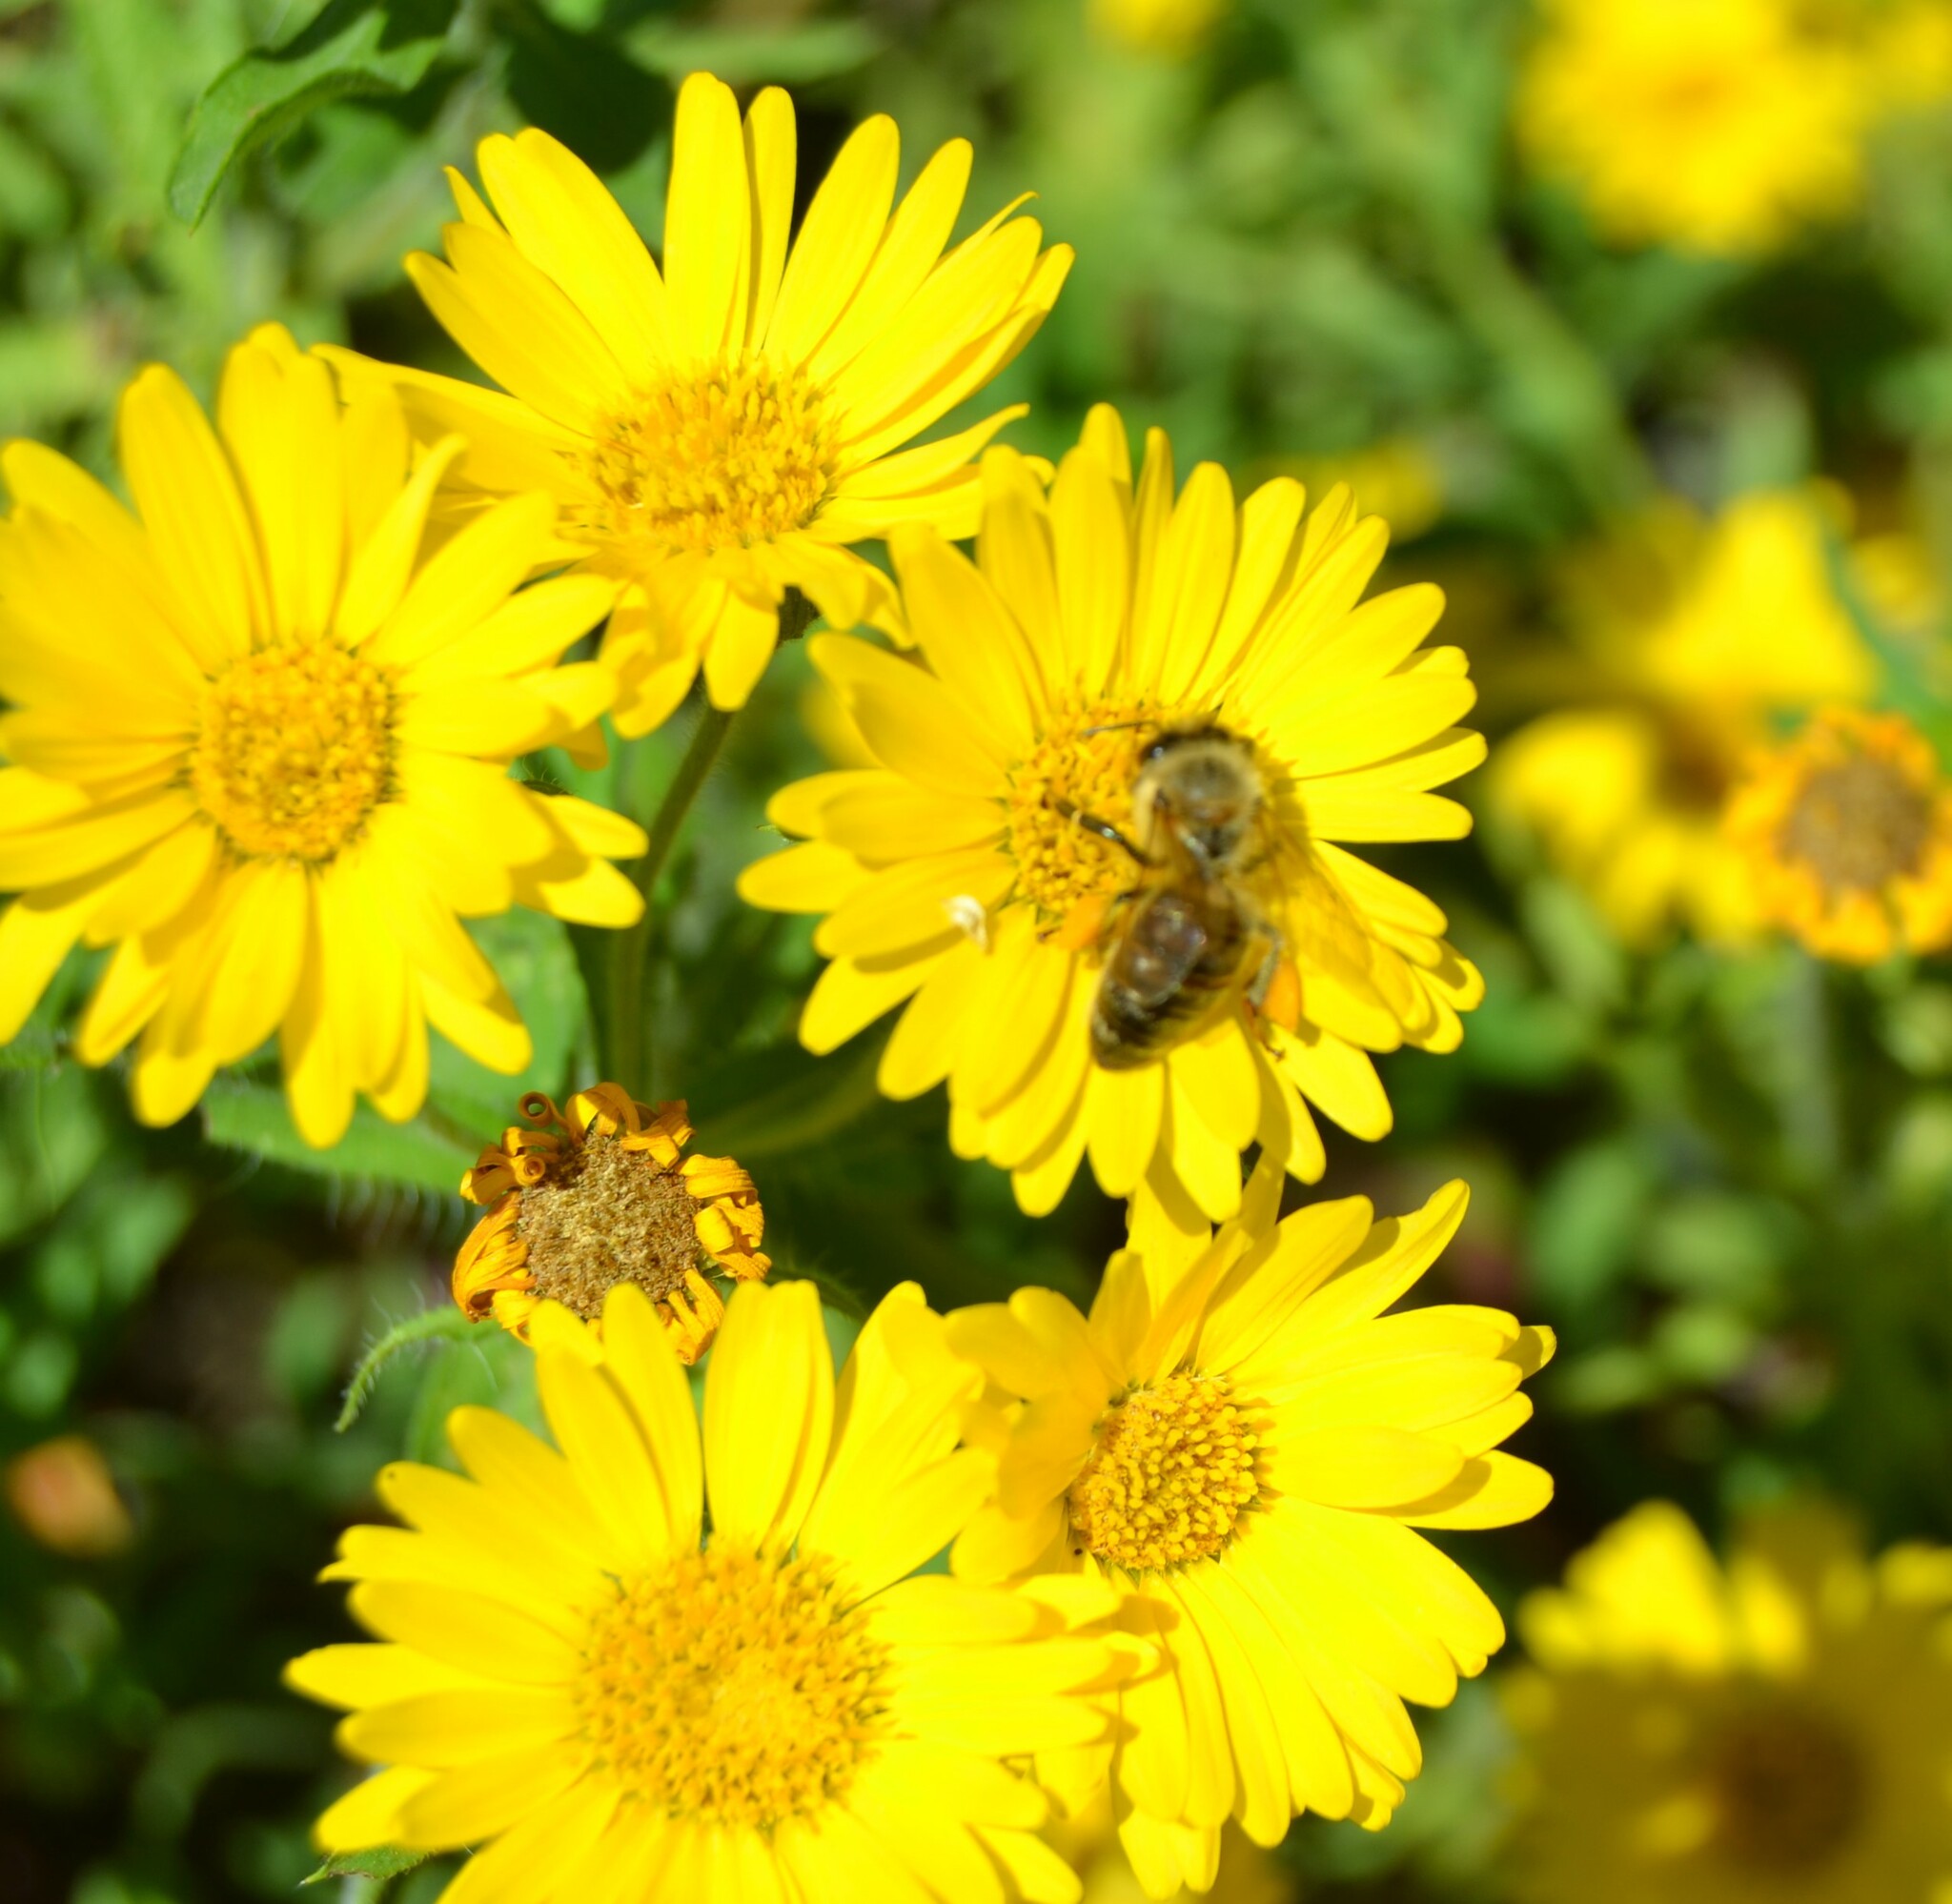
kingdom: Animalia
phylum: Arthropoda
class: Insecta
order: Hymenoptera
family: Apidae
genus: Apis
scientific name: Apis mellifera
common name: Honey bee
